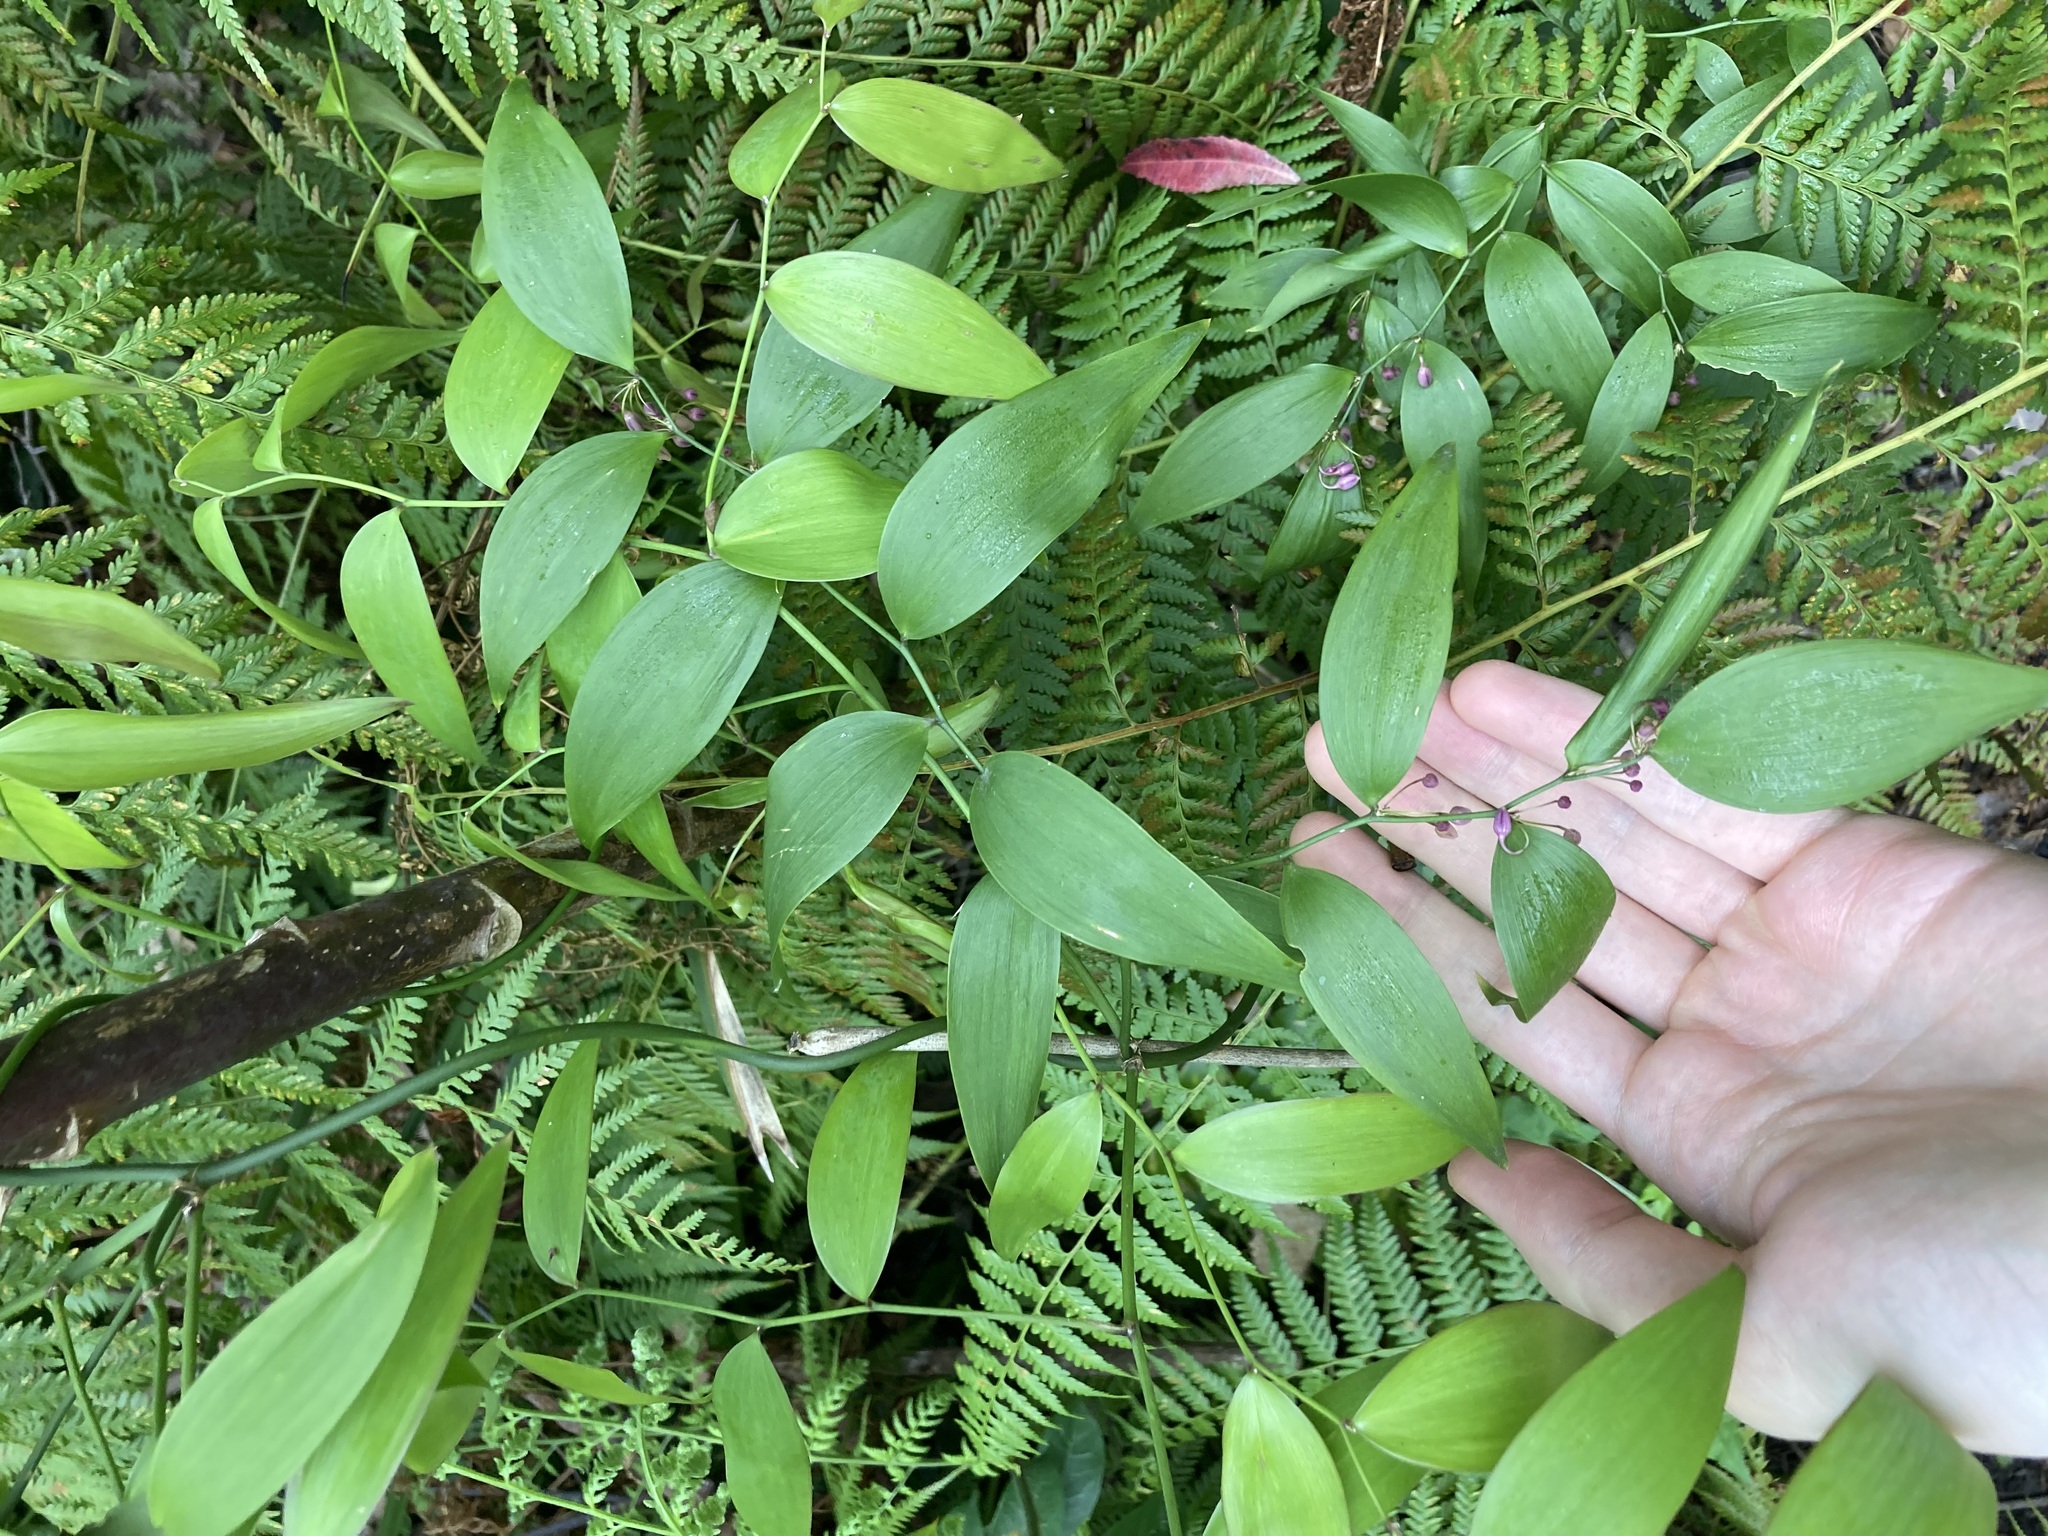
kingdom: Plantae
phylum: Tracheophyta
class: Liliopsida
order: Asparagales
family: Asparagaceae
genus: Eustrephus
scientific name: Eustrephus latifolius
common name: Orangevine
